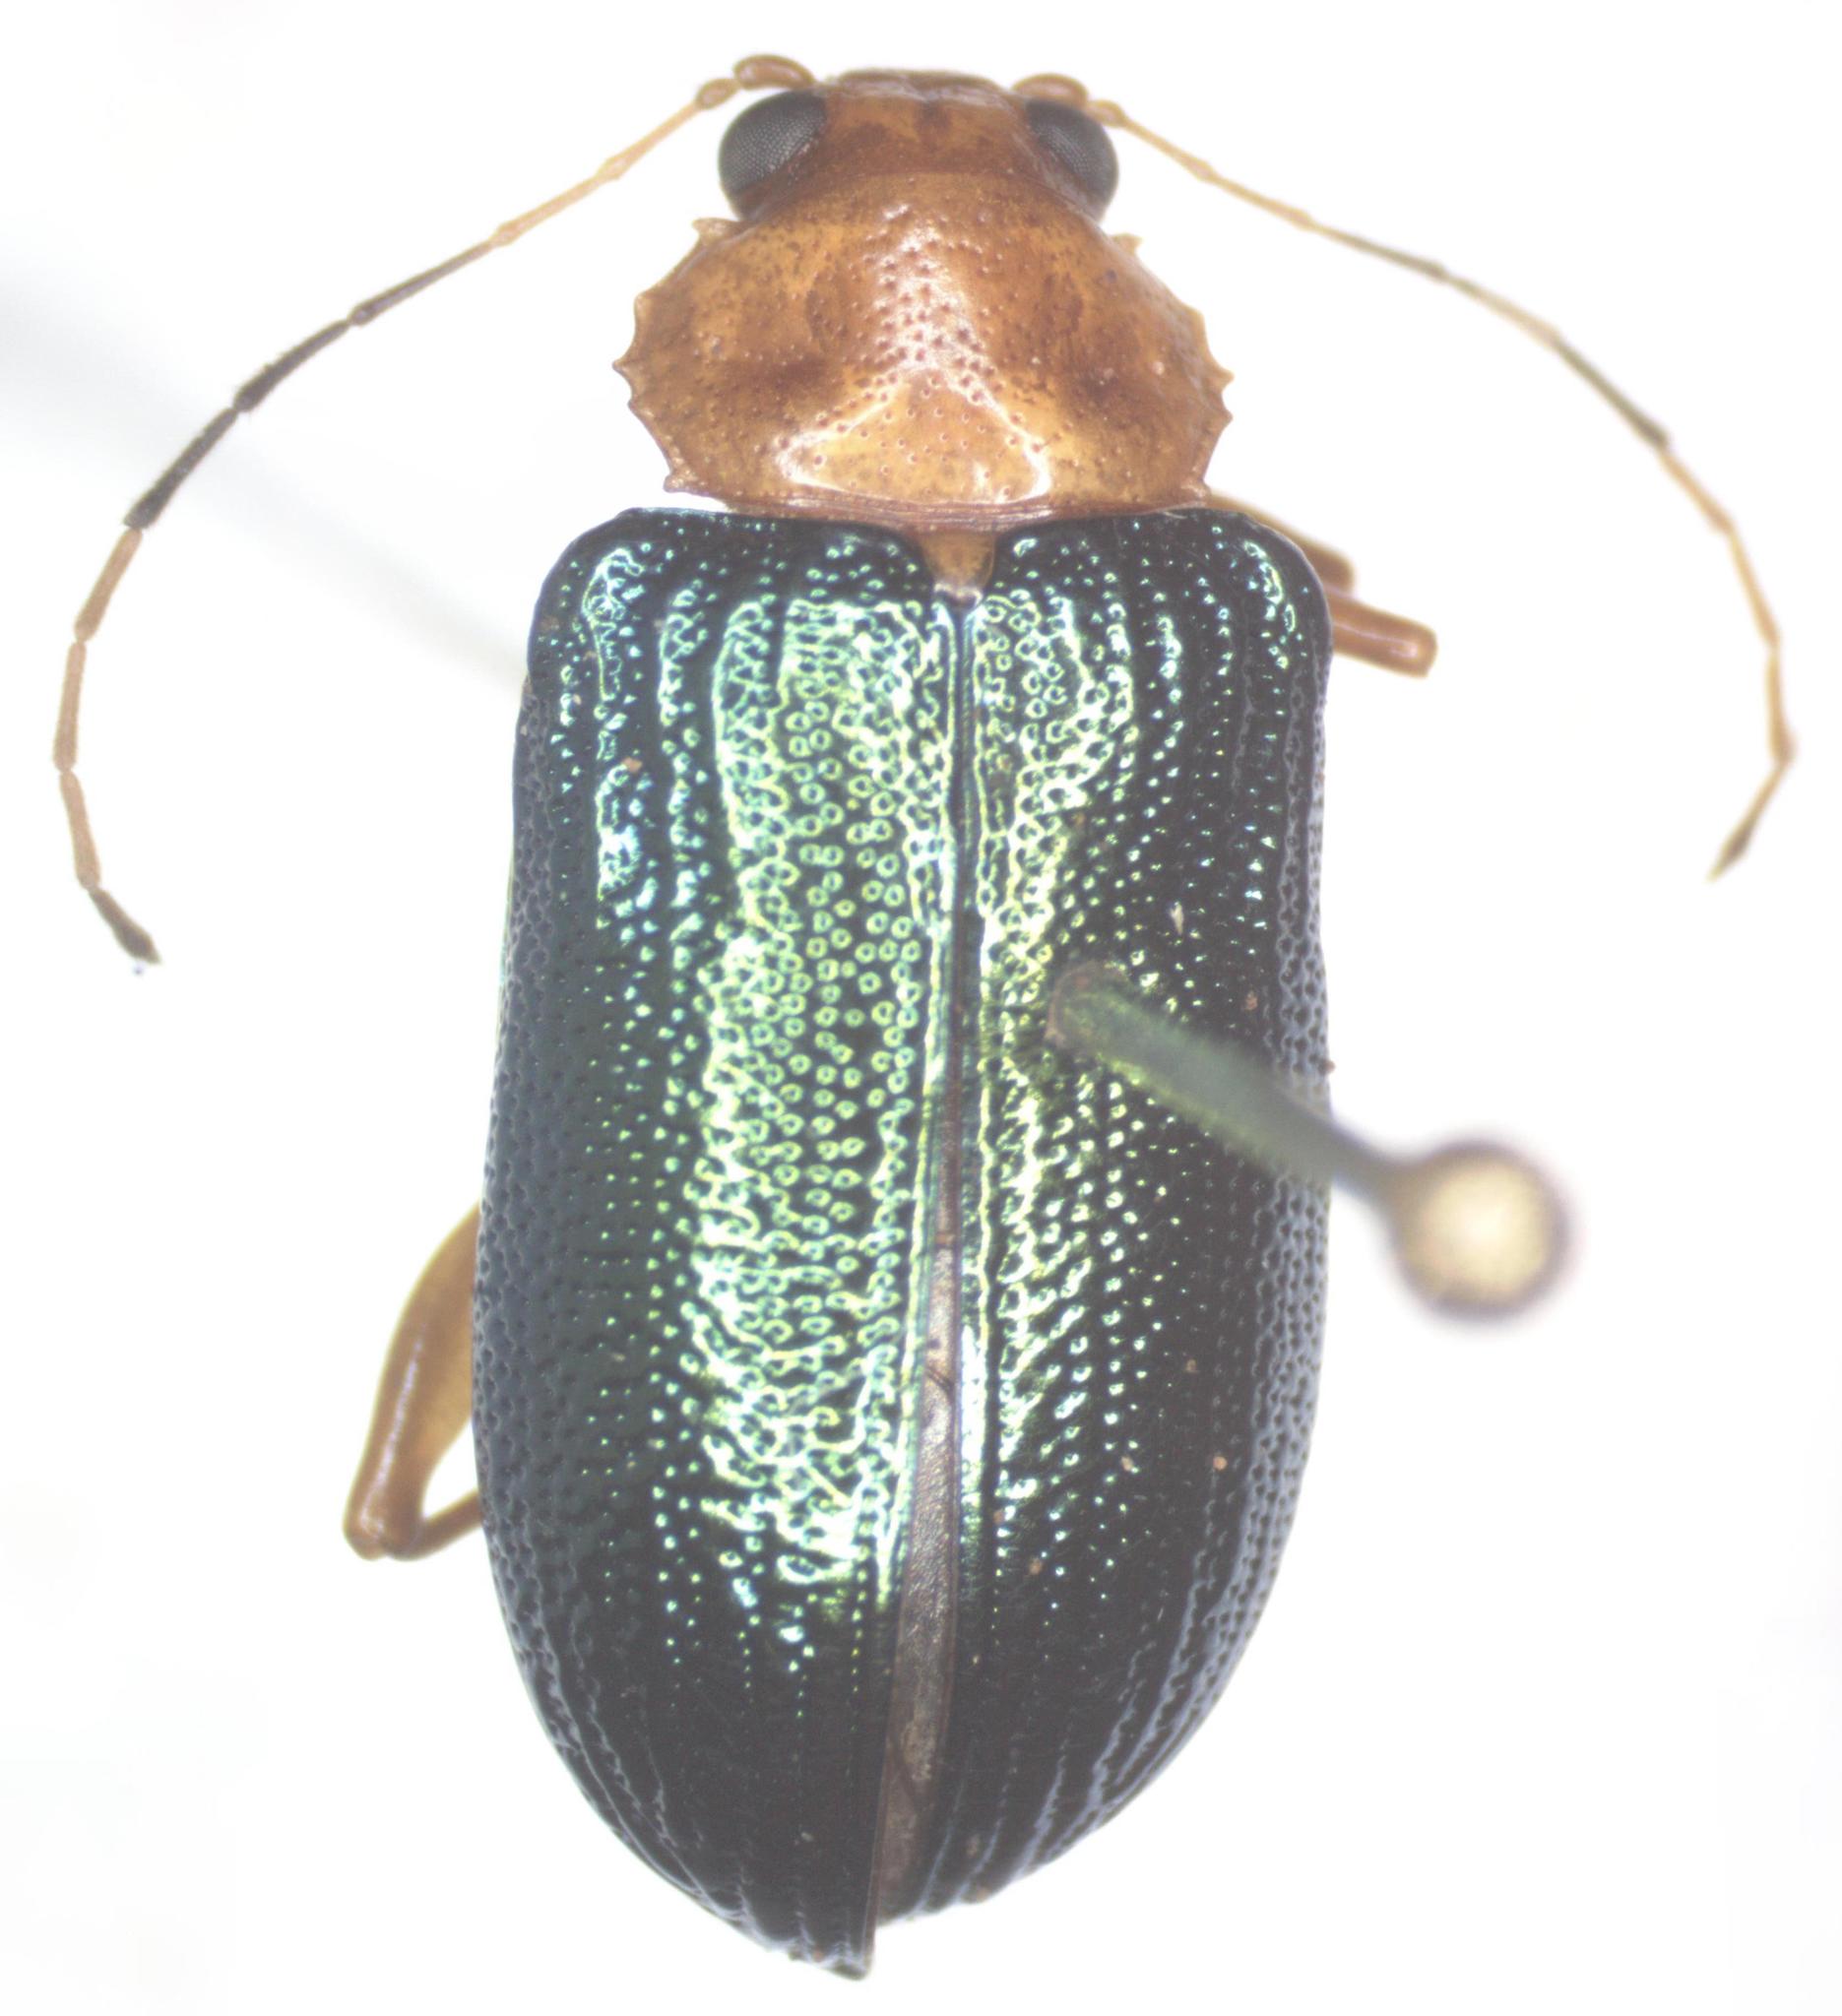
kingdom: Animalia
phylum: Arthropoda
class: Insecta
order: Coleoptera
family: Chrysomelidae
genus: Metaxyonycha
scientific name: Metaxyonycha
